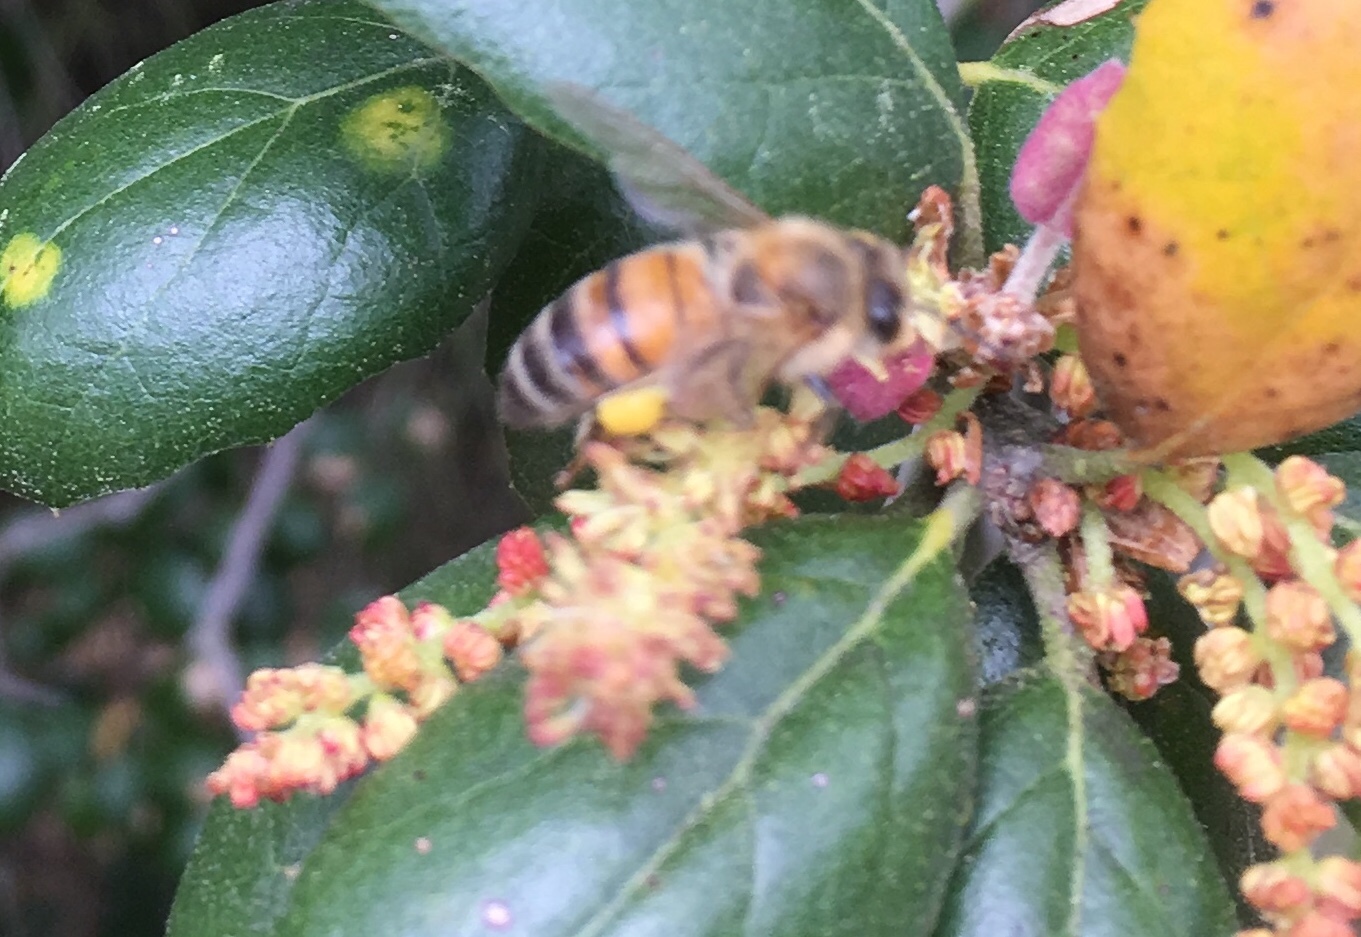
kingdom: Animalia
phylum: Arthropoda
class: Insecta
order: Hymenoptera
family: Apidae
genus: Apis
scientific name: Apis mellifera
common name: Honey bee
